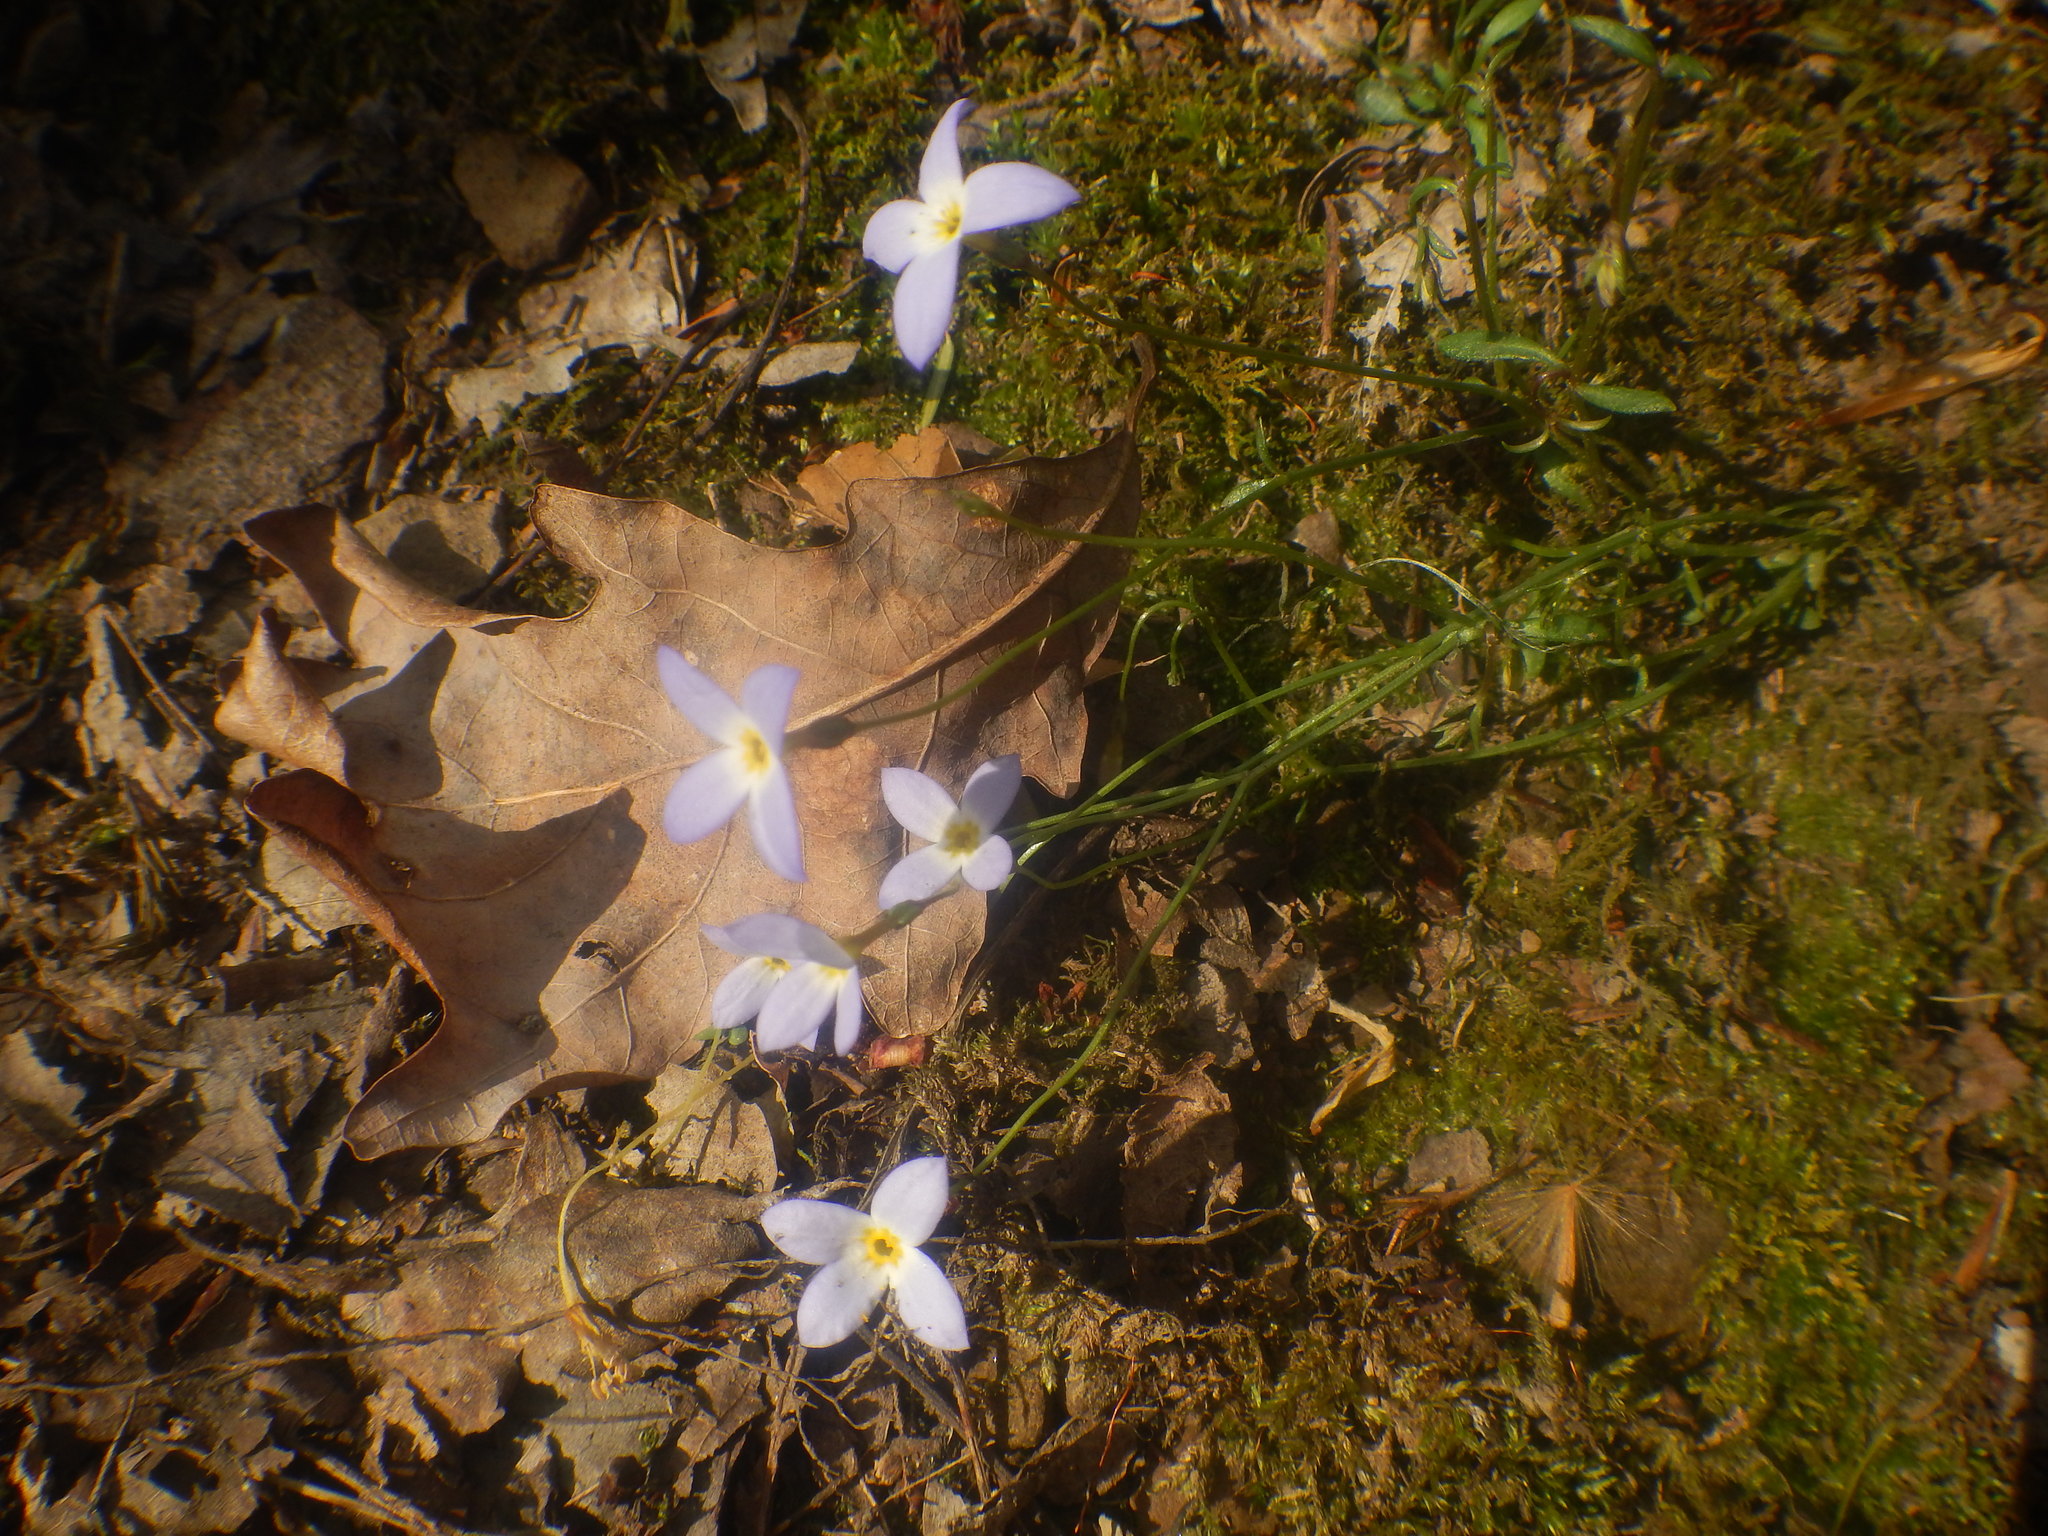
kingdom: Plantae
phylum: Tracheophyta
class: Magnoliopsida
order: Gentianales
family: Rubiaceae
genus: Houstonia
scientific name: Houstonia caerulea
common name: Bluets
